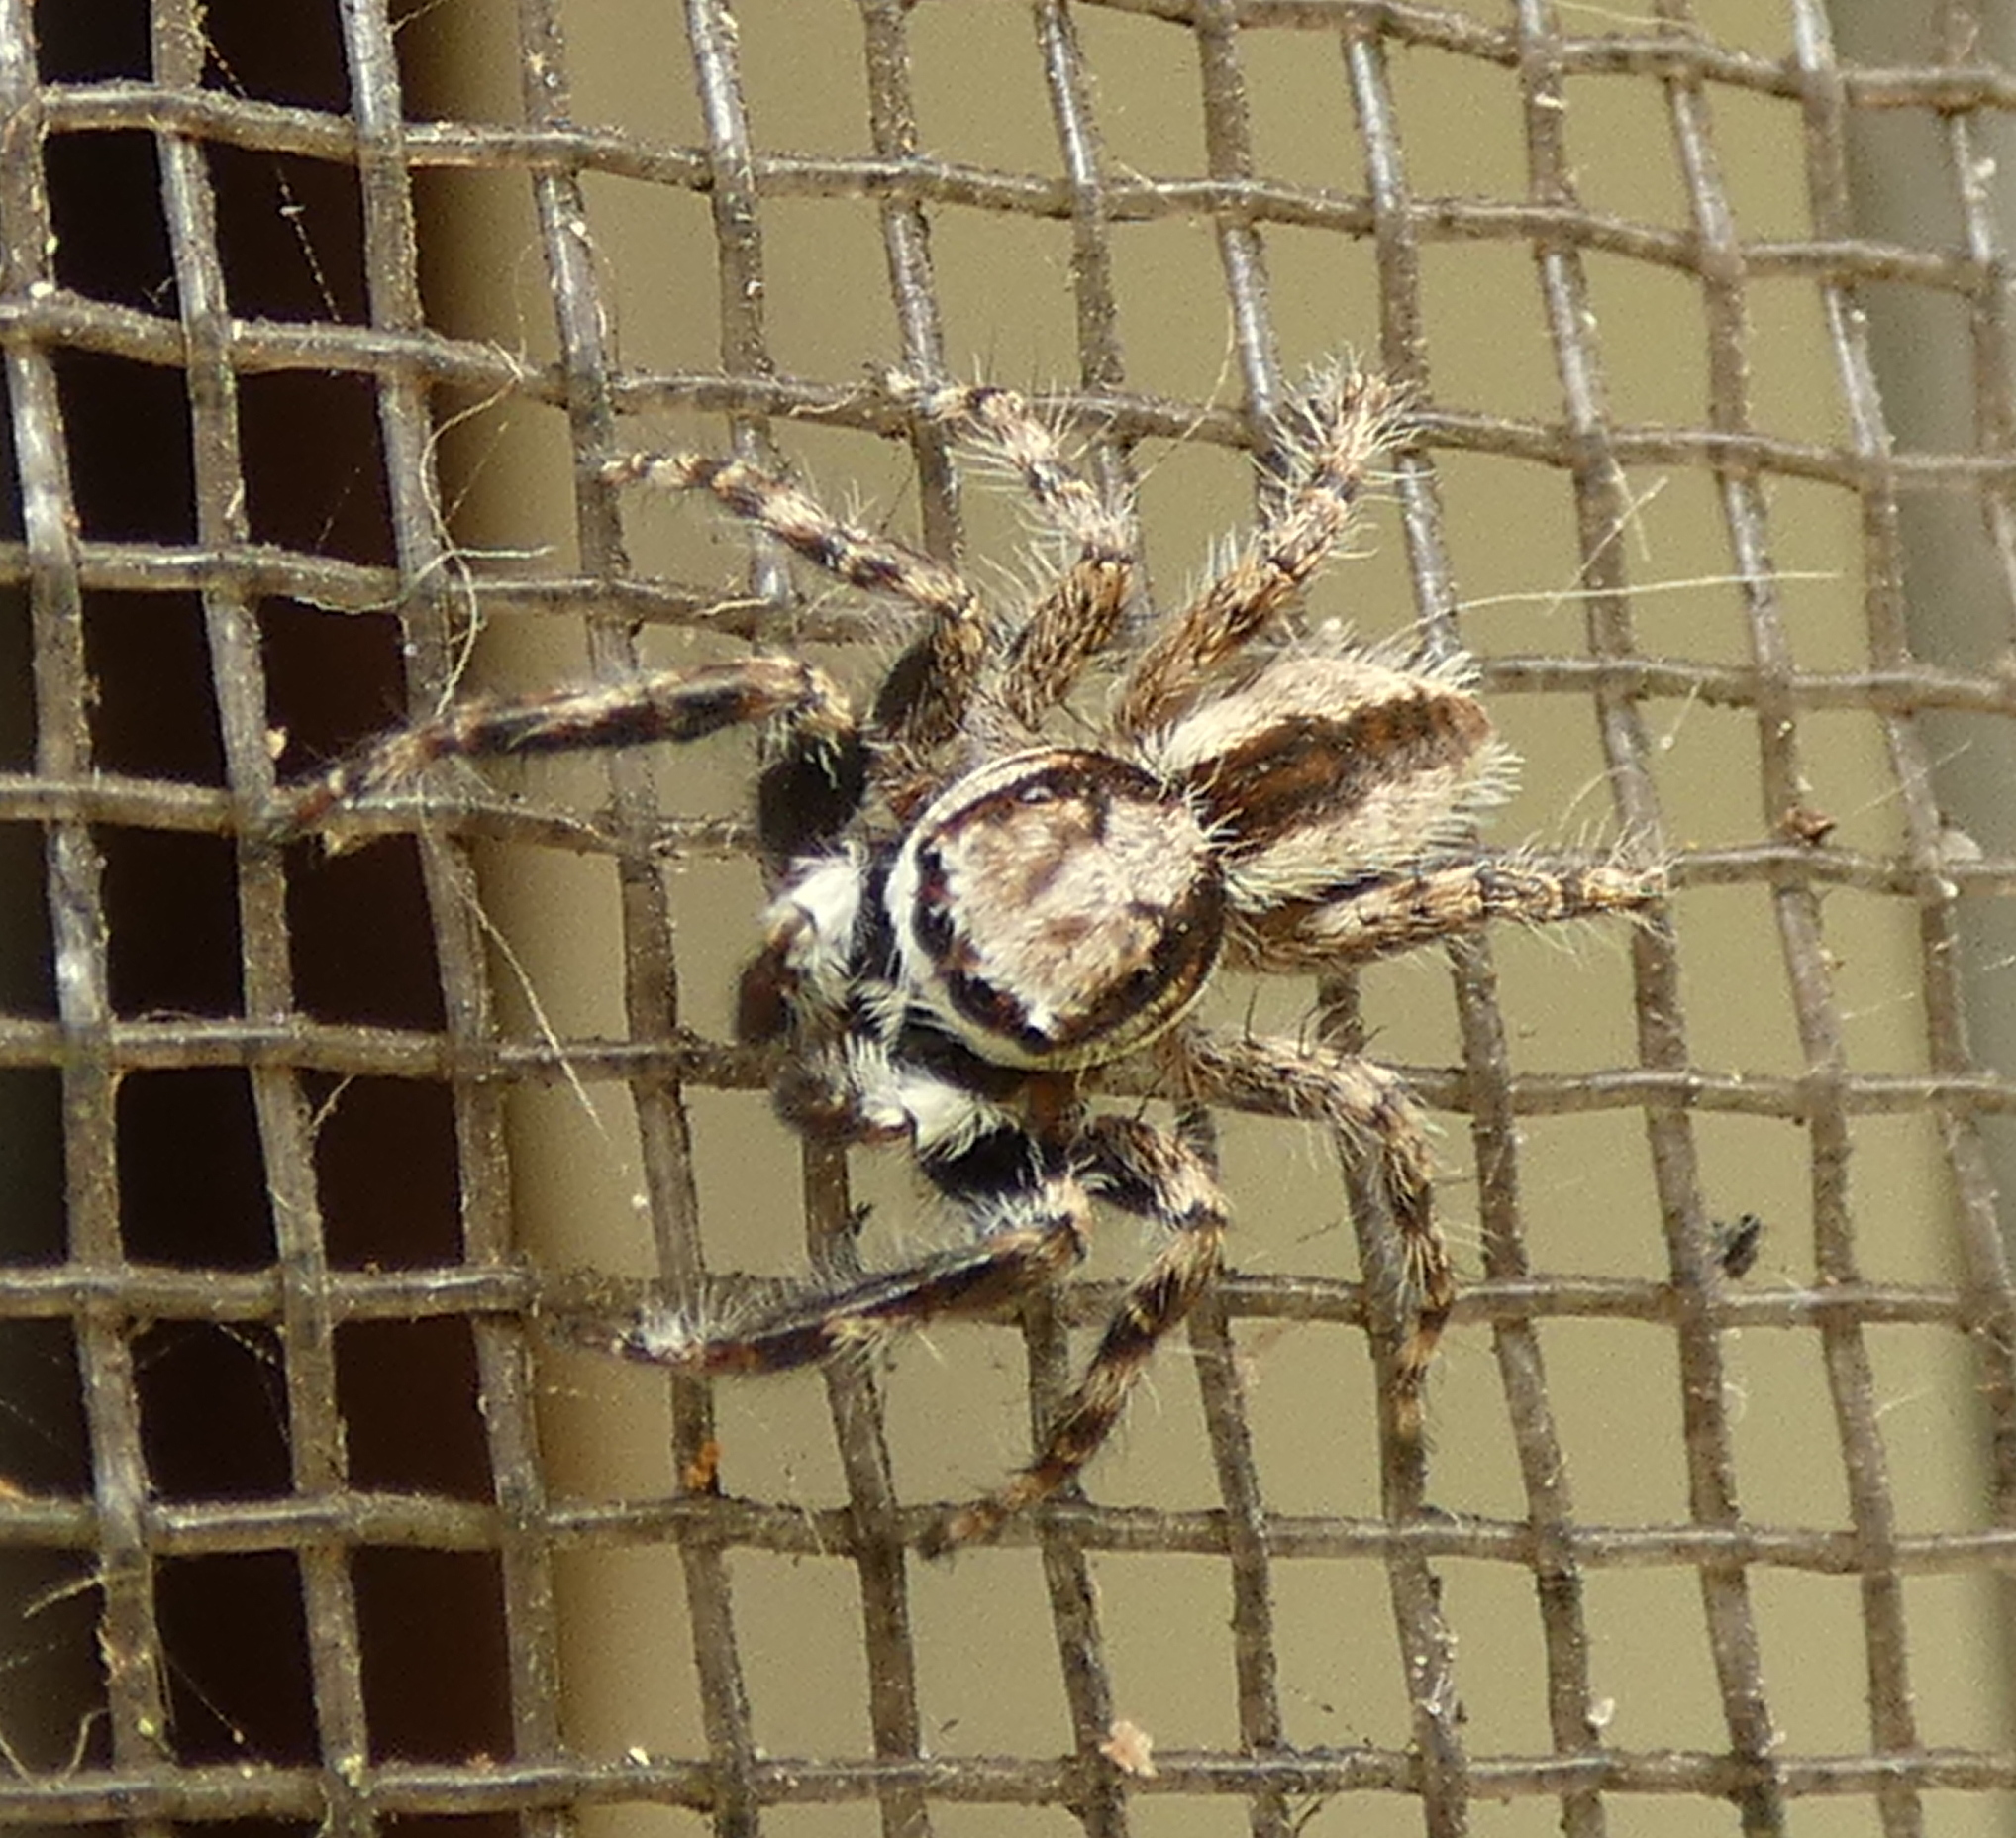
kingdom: Animalia
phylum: Arthropoda
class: Arachnida
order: Araneae
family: Salticidae
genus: Menemerus
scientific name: Menemerus bivittatus
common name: Gray wall jumper
